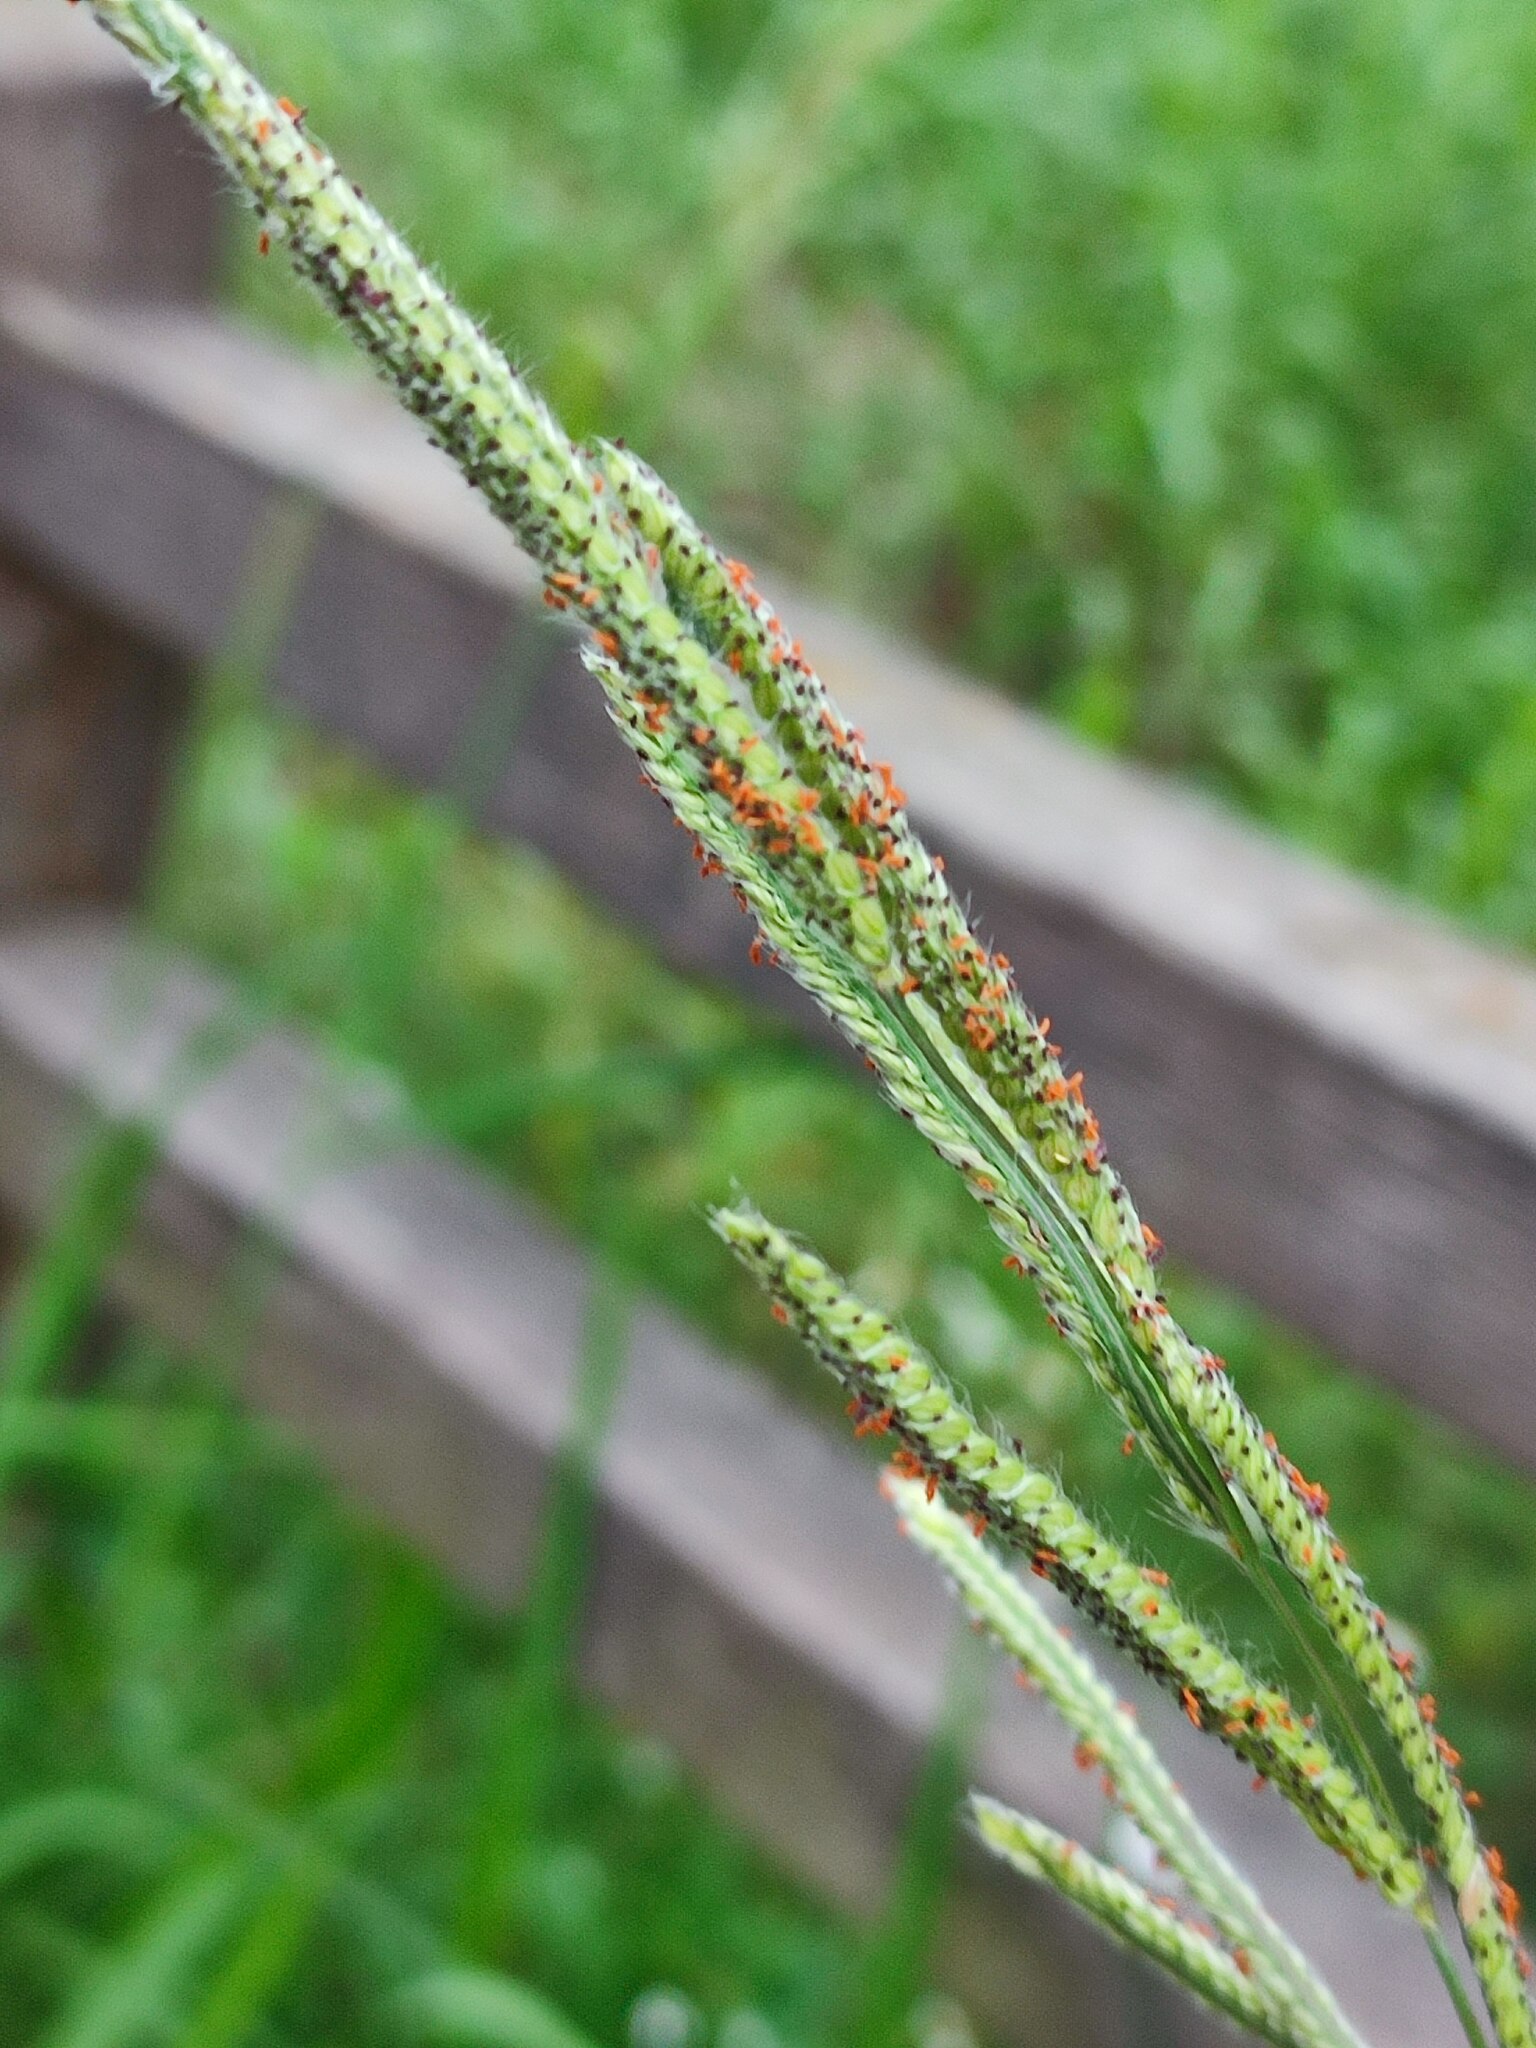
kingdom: Plantae
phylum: Tracheophyta
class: Liliopsida
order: Poales
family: Poaceae
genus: Paspalum
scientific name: Paspalum urvillei
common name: Vasey's grass
